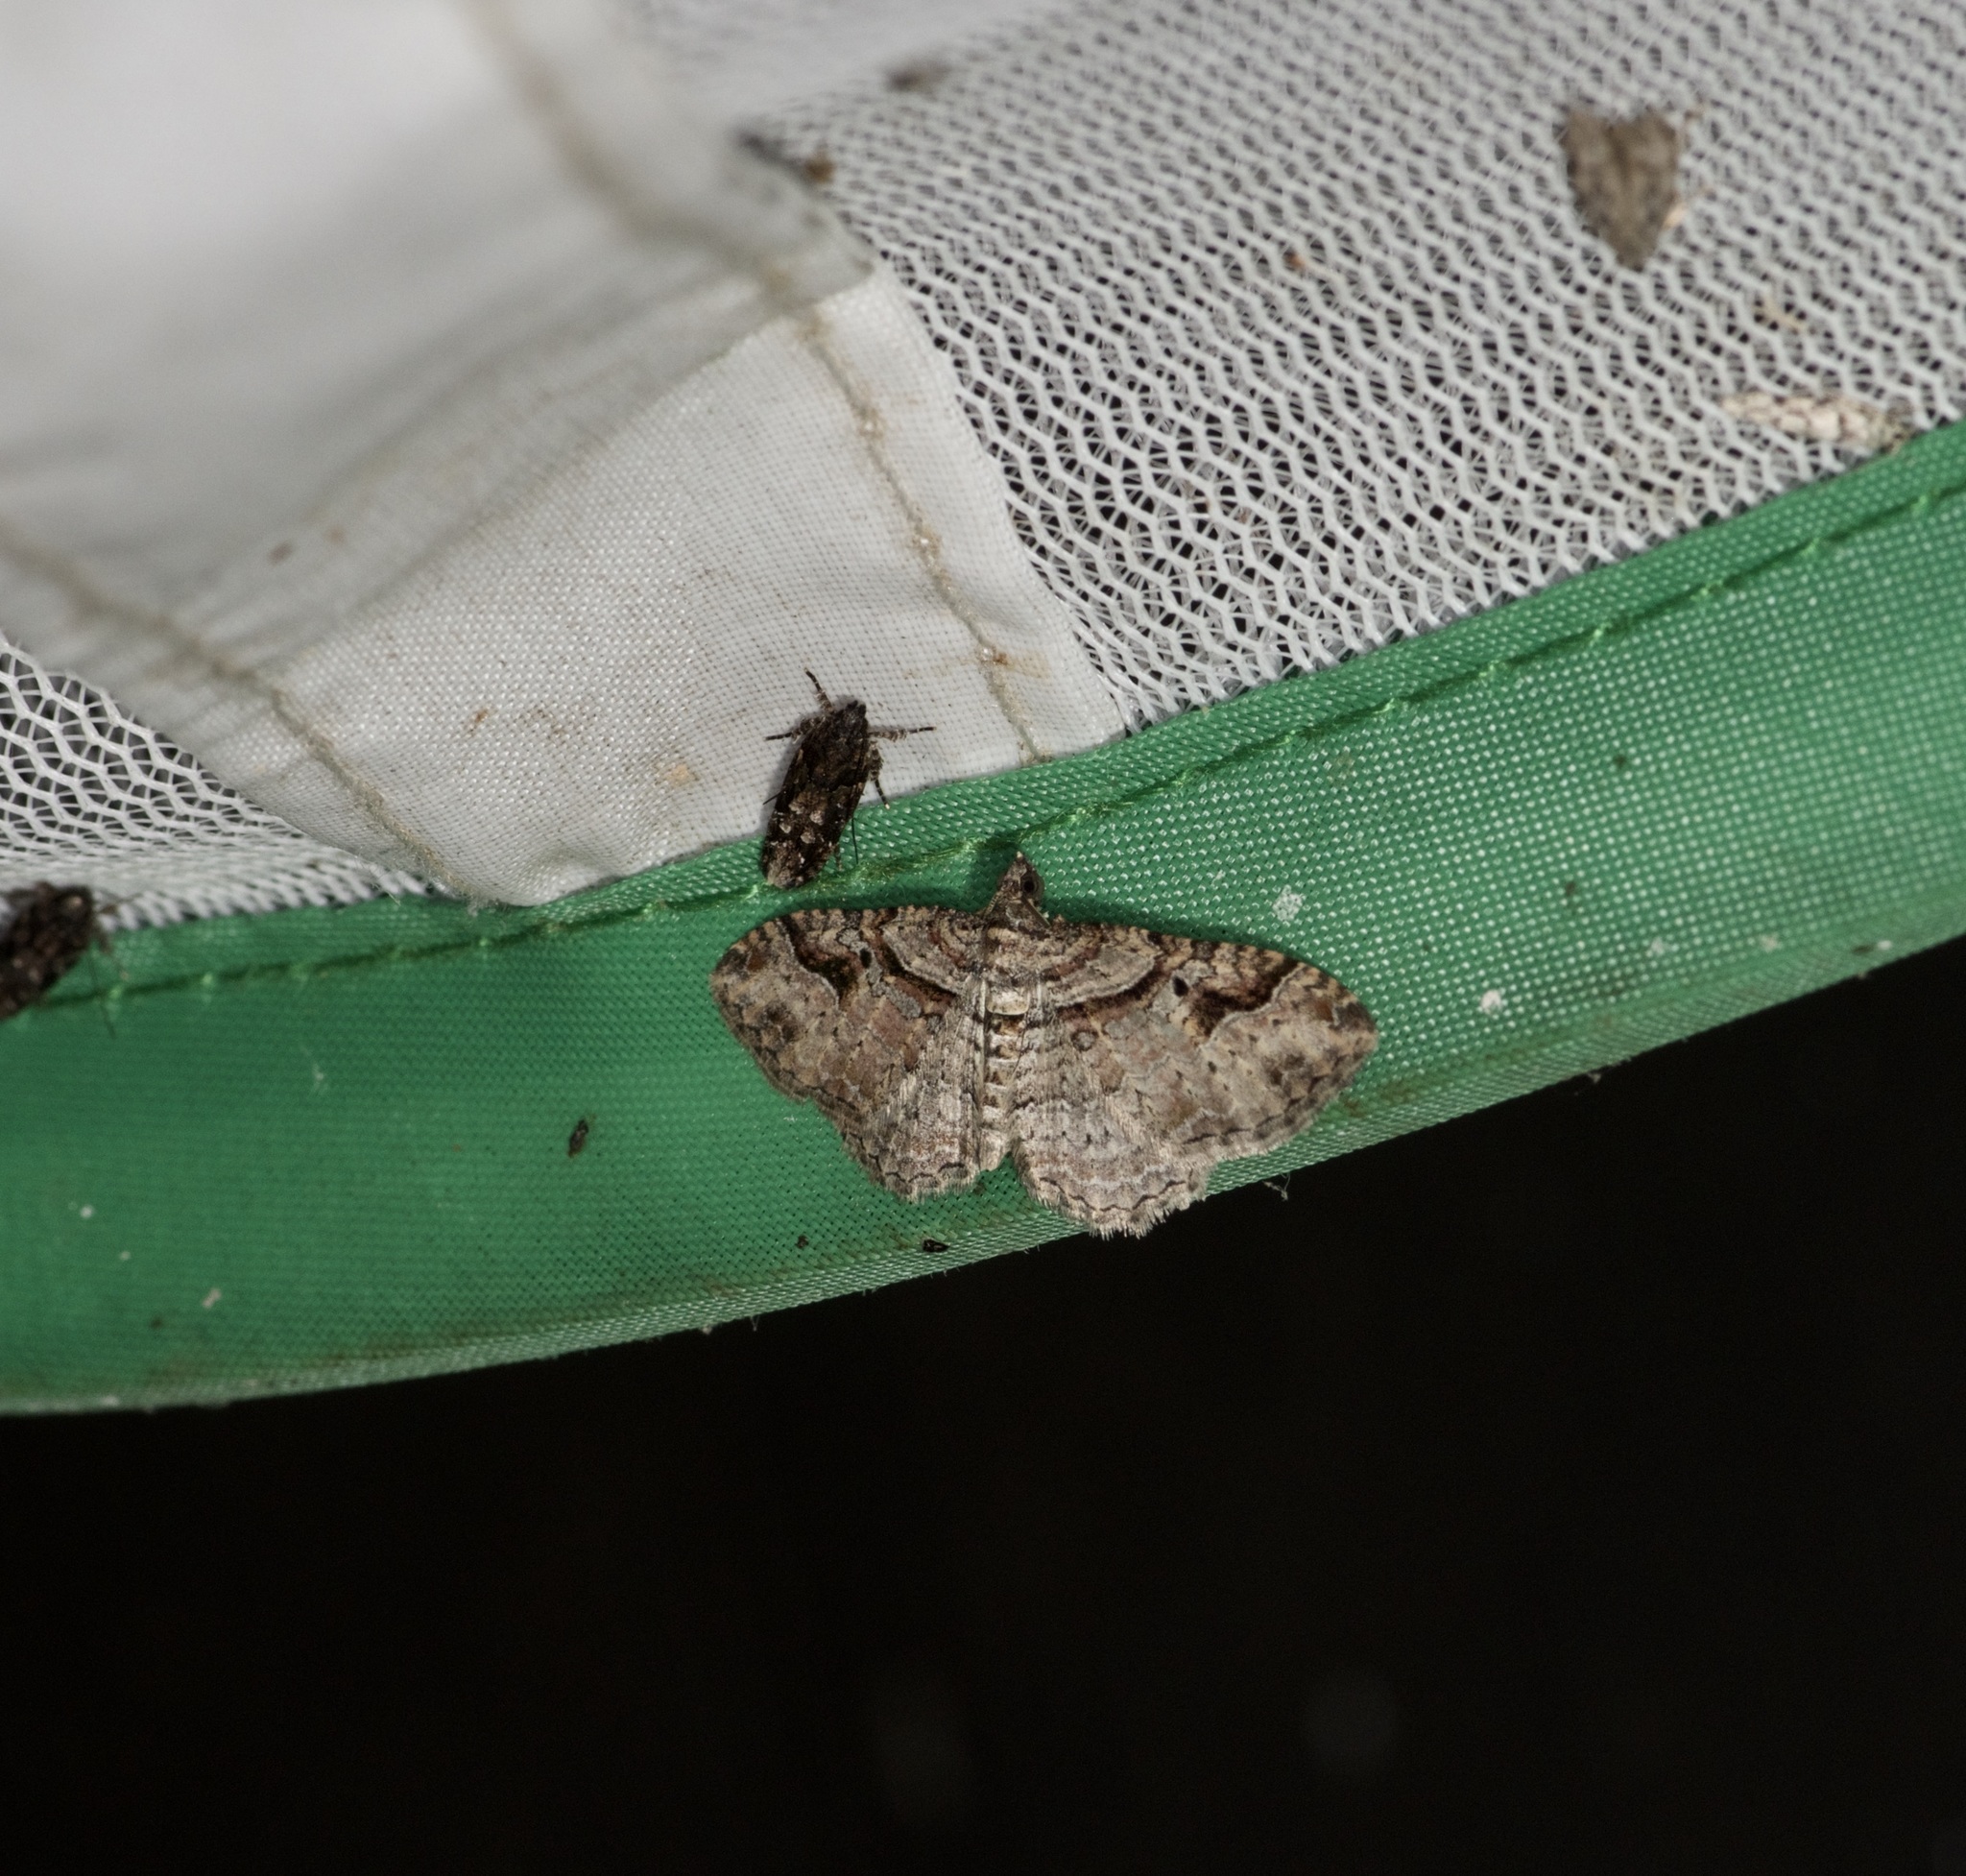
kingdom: Animalia
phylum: Arthropoda
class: Insecta
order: Lepidoptera
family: Geometridae
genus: Costaconvexa
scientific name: Costaconvexa centrostrigaria
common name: Bent-line carpet
